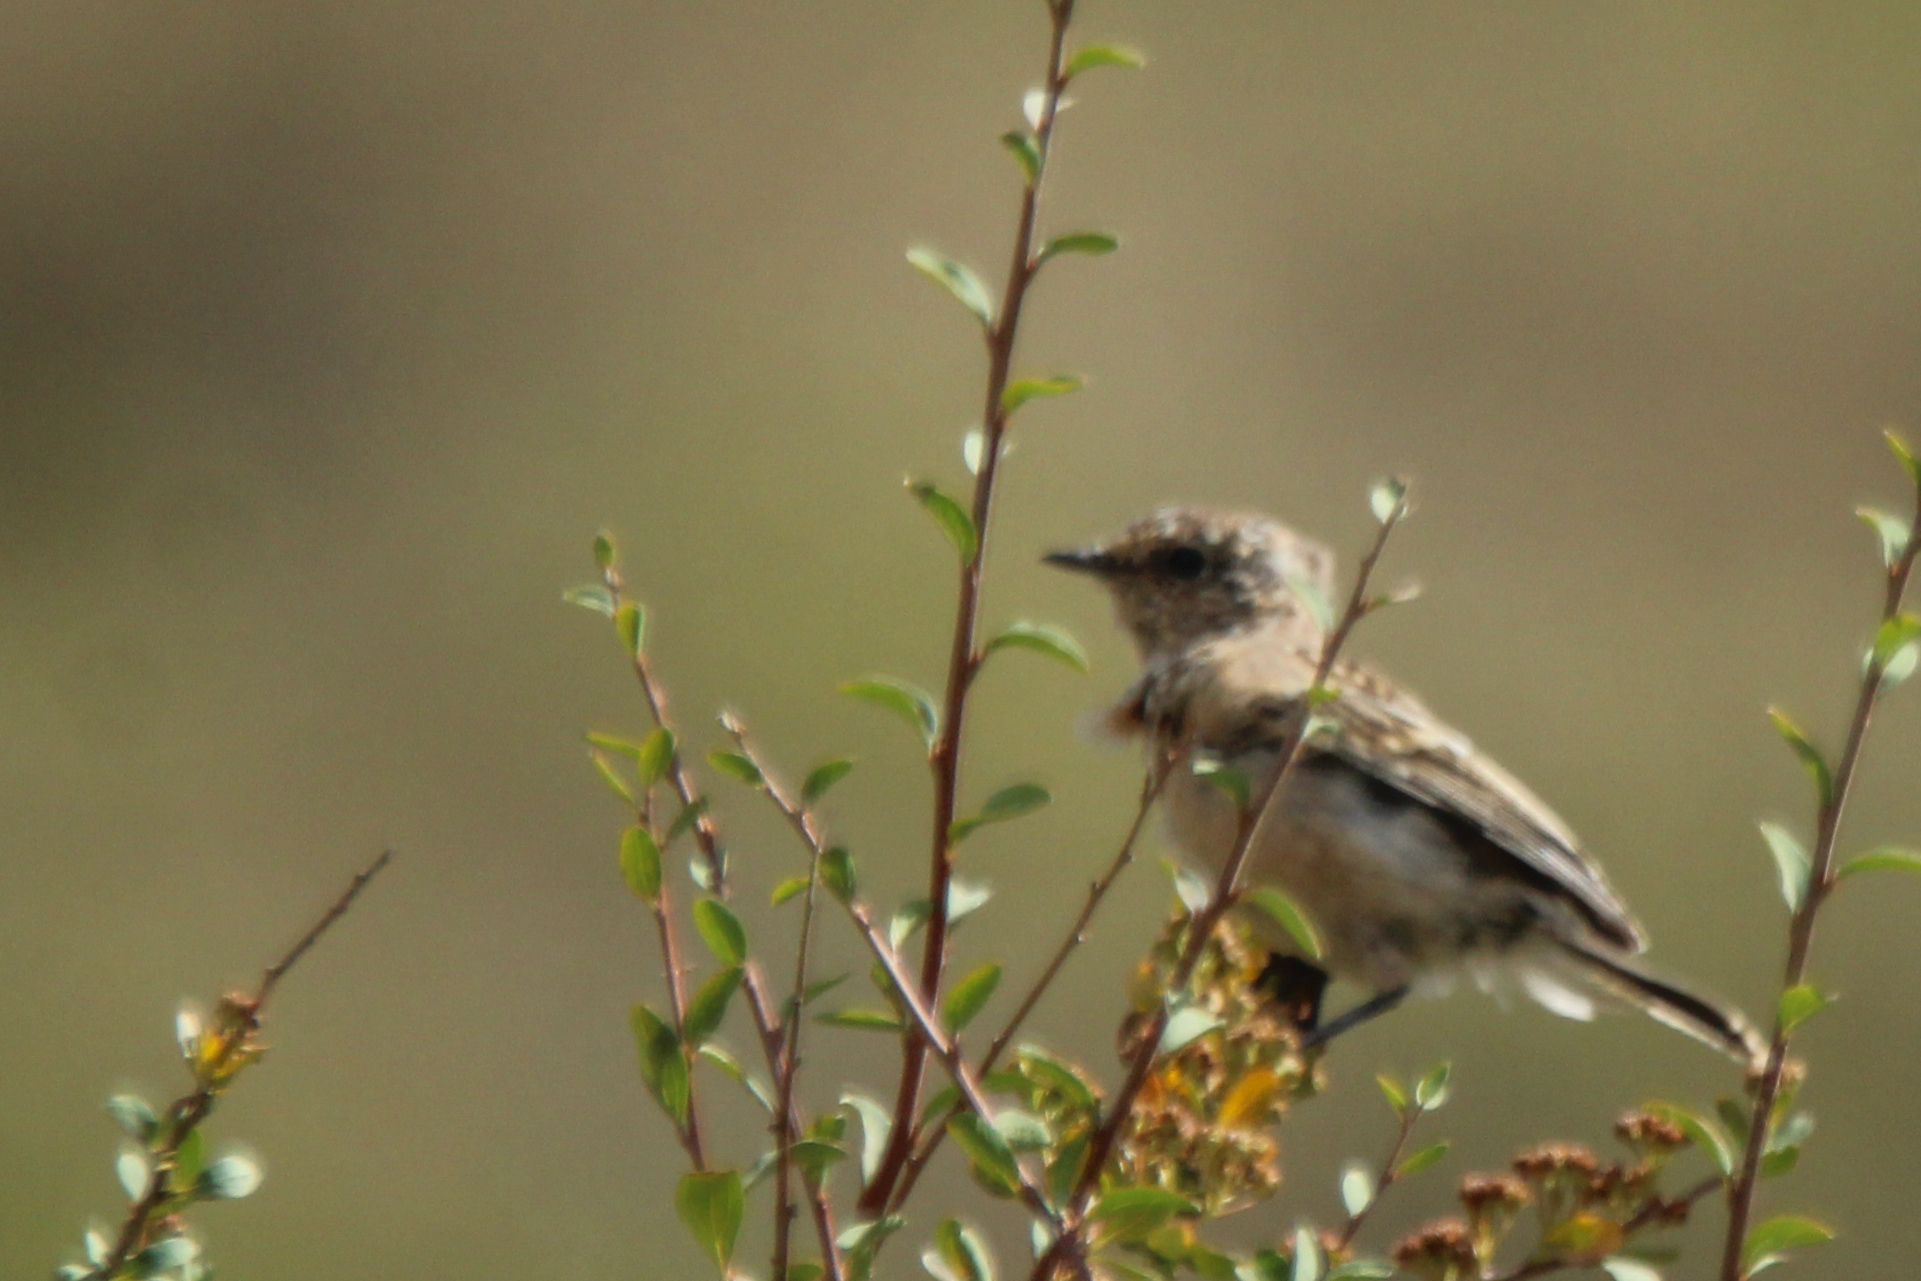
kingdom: Animalia
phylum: Chordata
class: Aves
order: Passeriformes
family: Muscicapidae
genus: Saxicola
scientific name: Saxicola maurus
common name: Siberian stonechat
